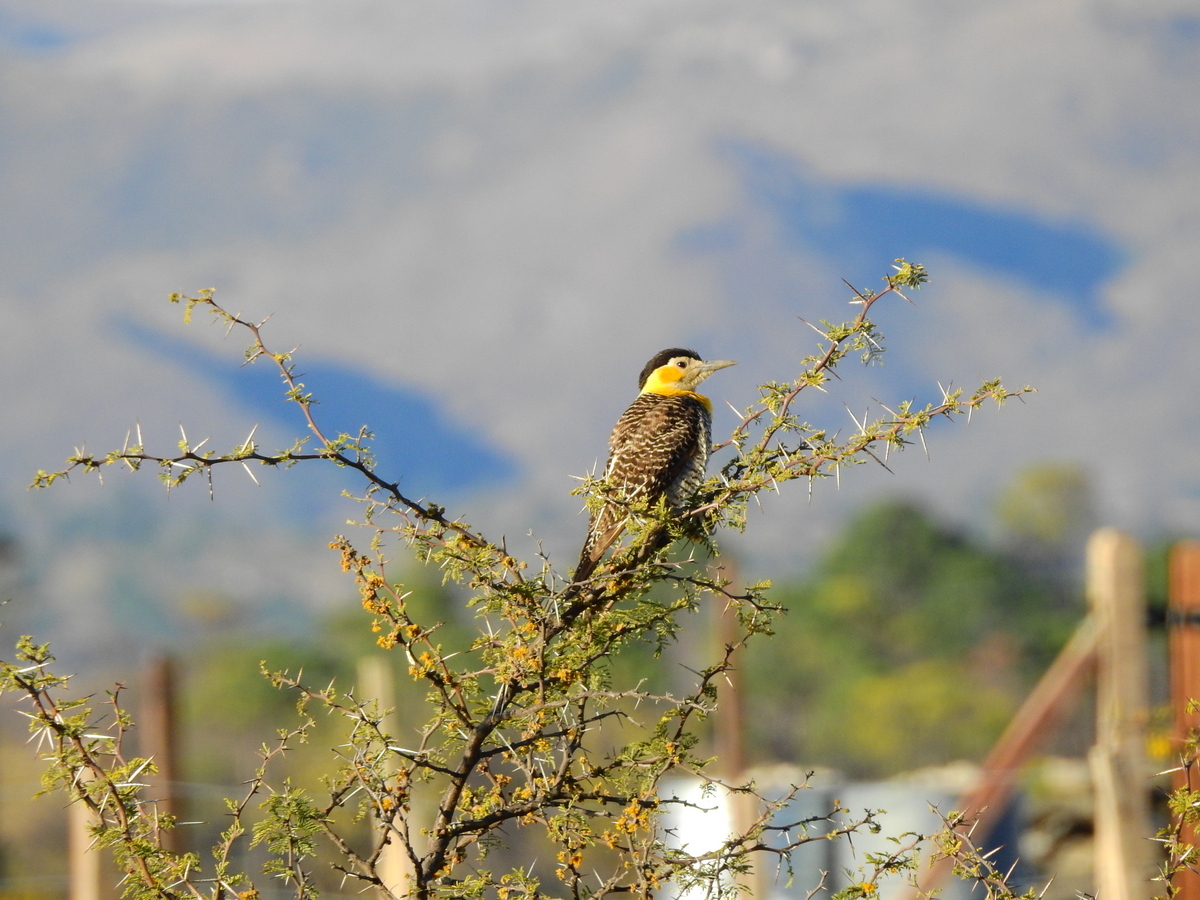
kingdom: Animalia
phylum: Chordata
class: Aves
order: Piciformes
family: Picidae
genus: Colaptes
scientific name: Colaptes campestris
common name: Campo flicker
